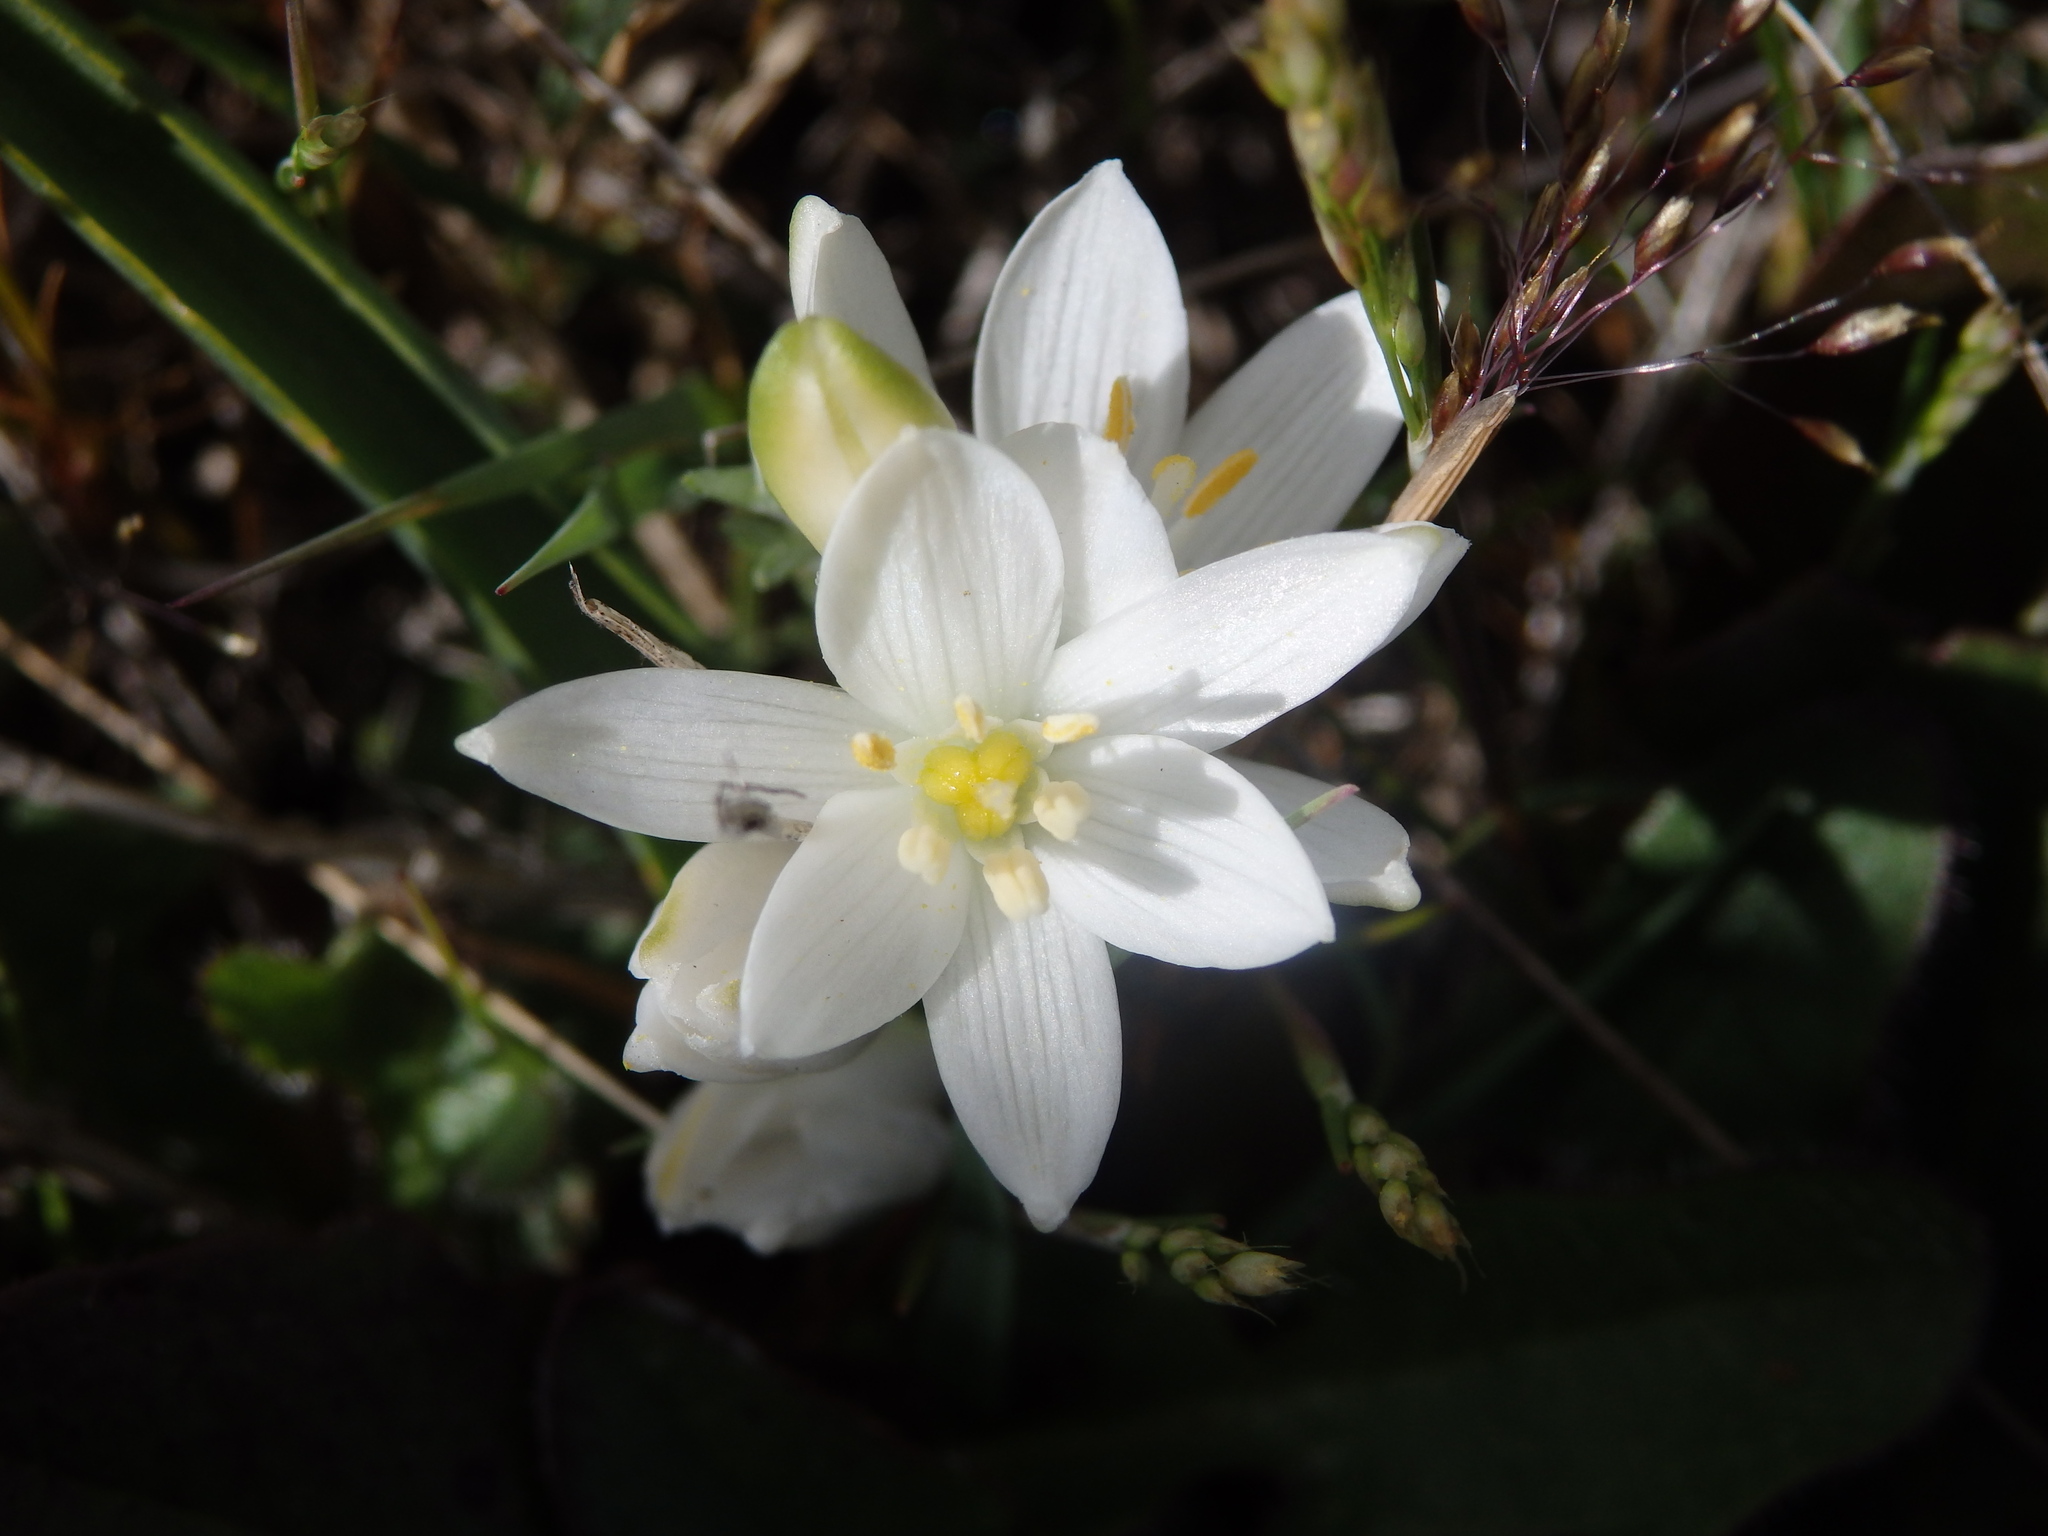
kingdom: Plantae
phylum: Tracheophyta
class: Liliopsida
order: Asparagales
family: Asparagaceae
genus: Ornithogalum
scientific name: Ornithogalum concinnum
